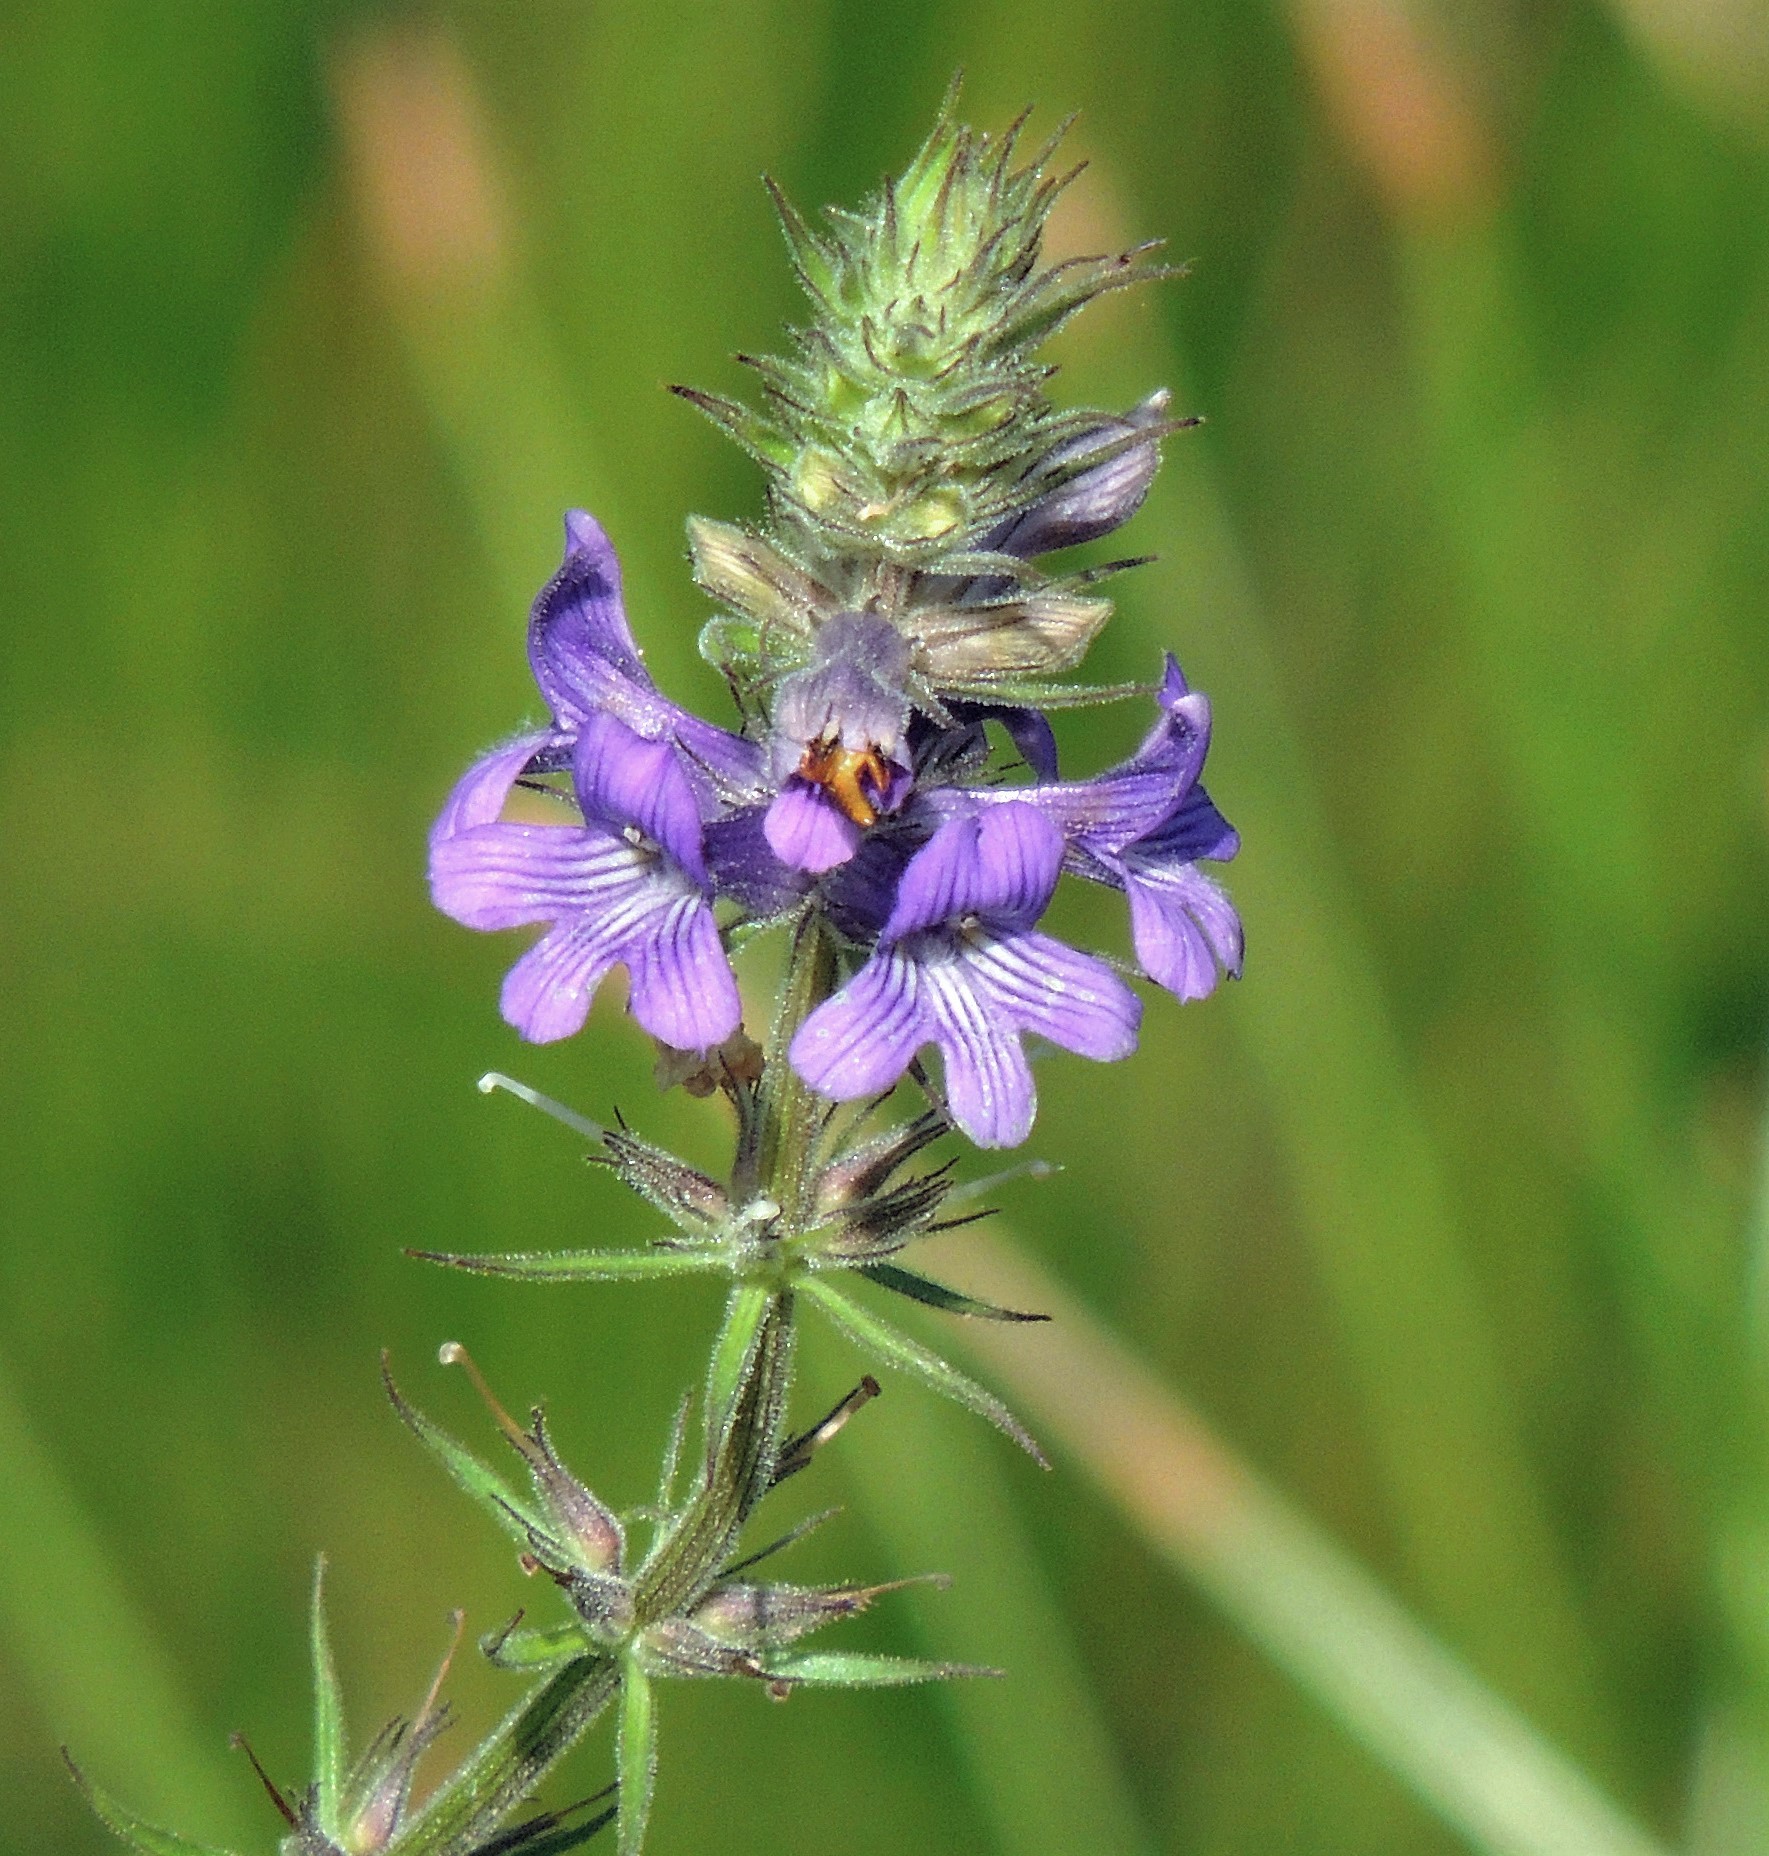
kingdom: Plantae
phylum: Tracheophyta
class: Magnoliopsida
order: Lamiales
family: Plantaginaceae
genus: Stemodia
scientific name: Stemodia hyptoides
